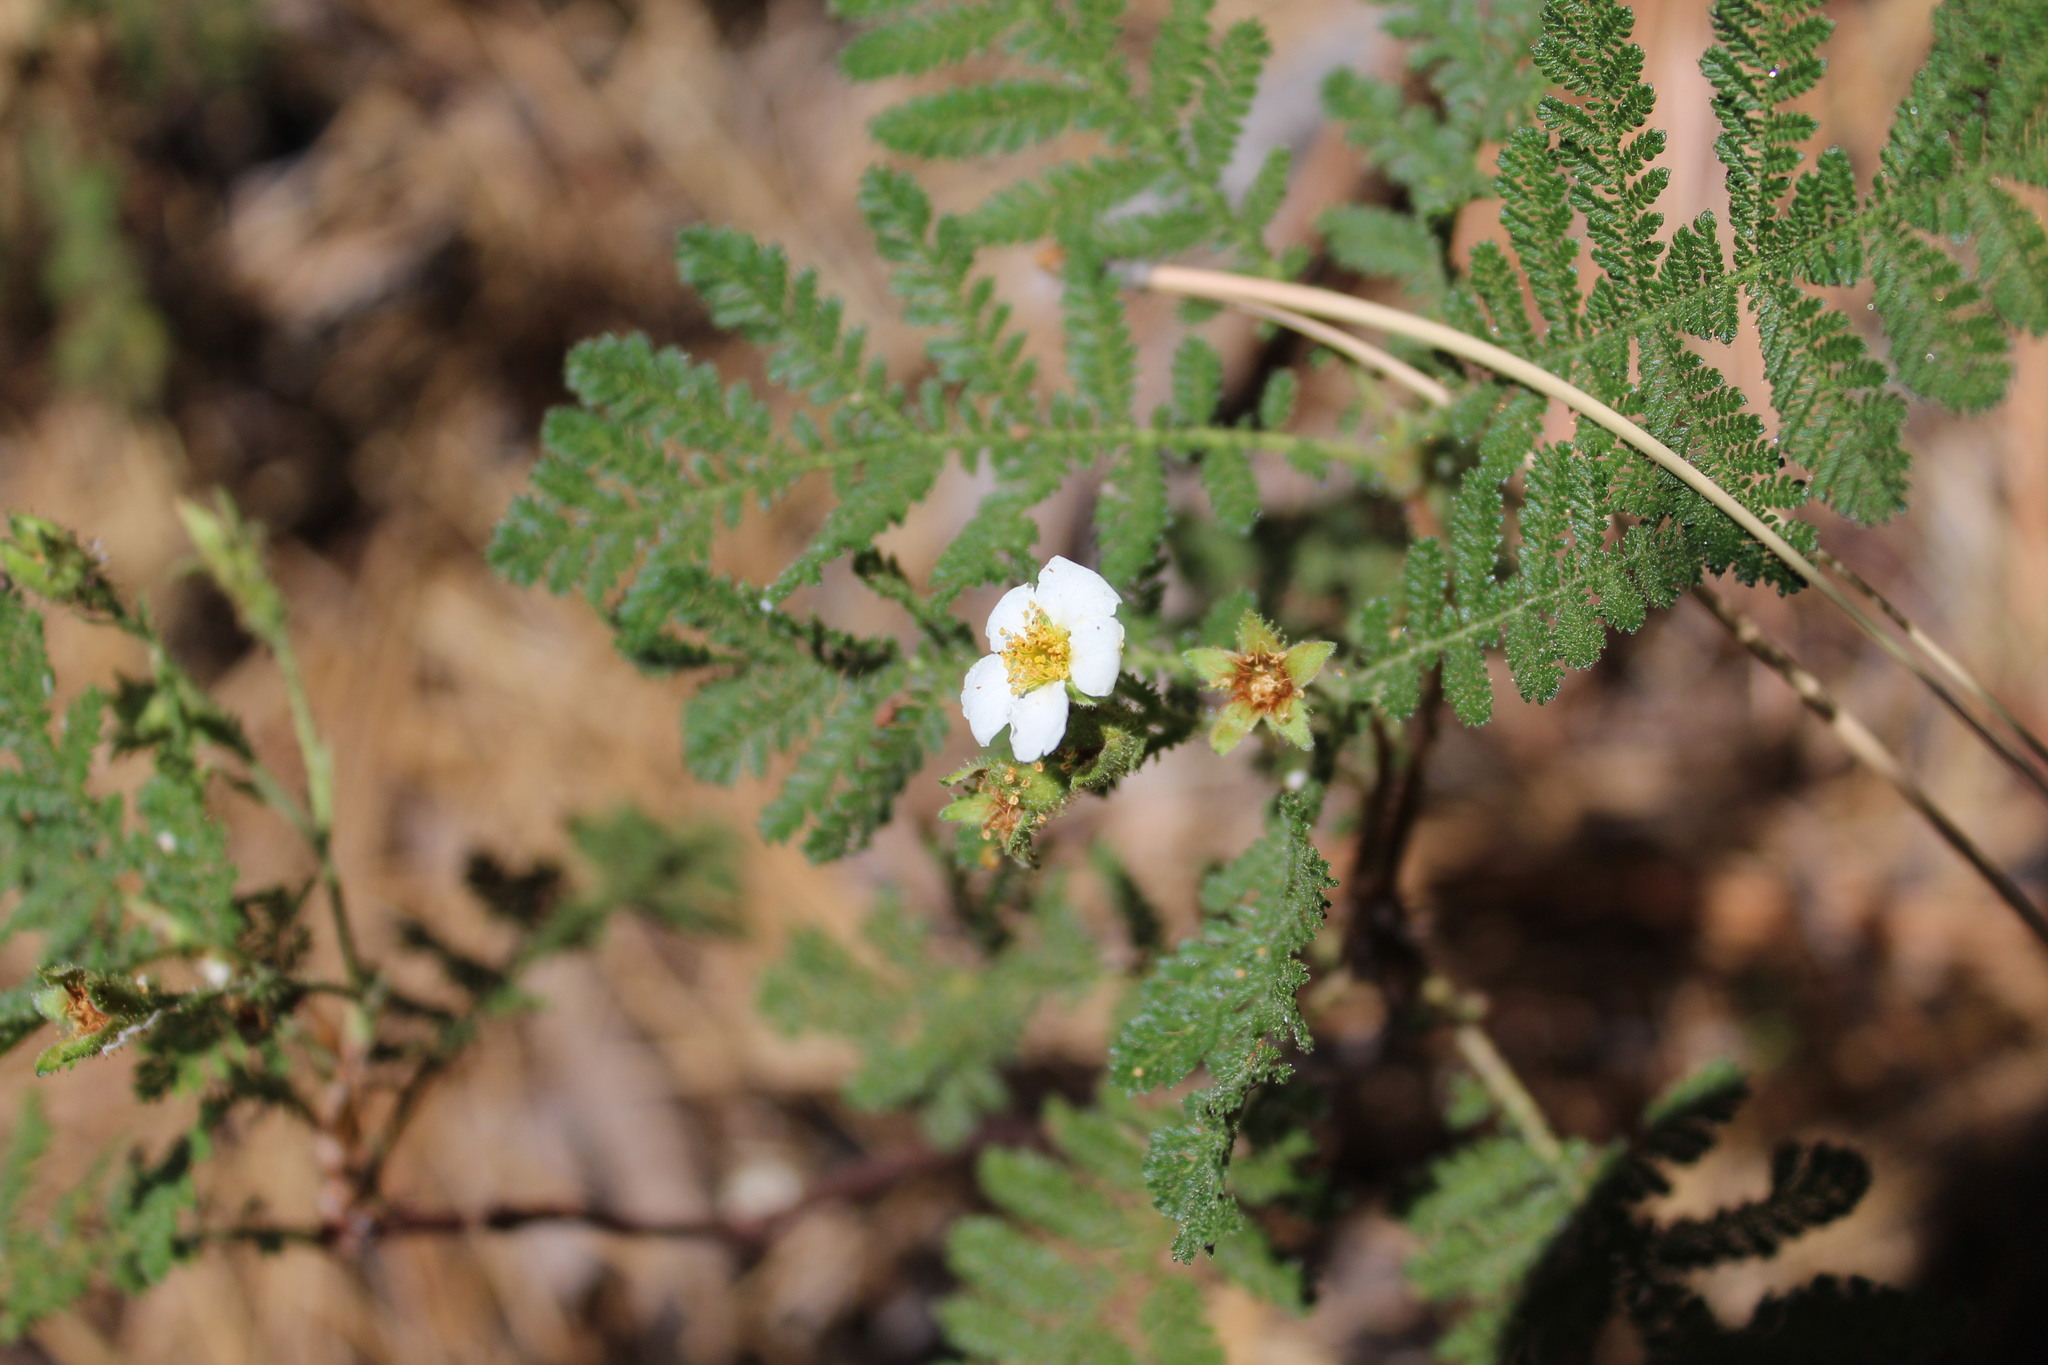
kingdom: Plantae
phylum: Tracheophyta
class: Magnoliopsida
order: Rosales
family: Rosaceae
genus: Chamaebatia
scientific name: Chamaebatia foliolosa
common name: Mountain misery
